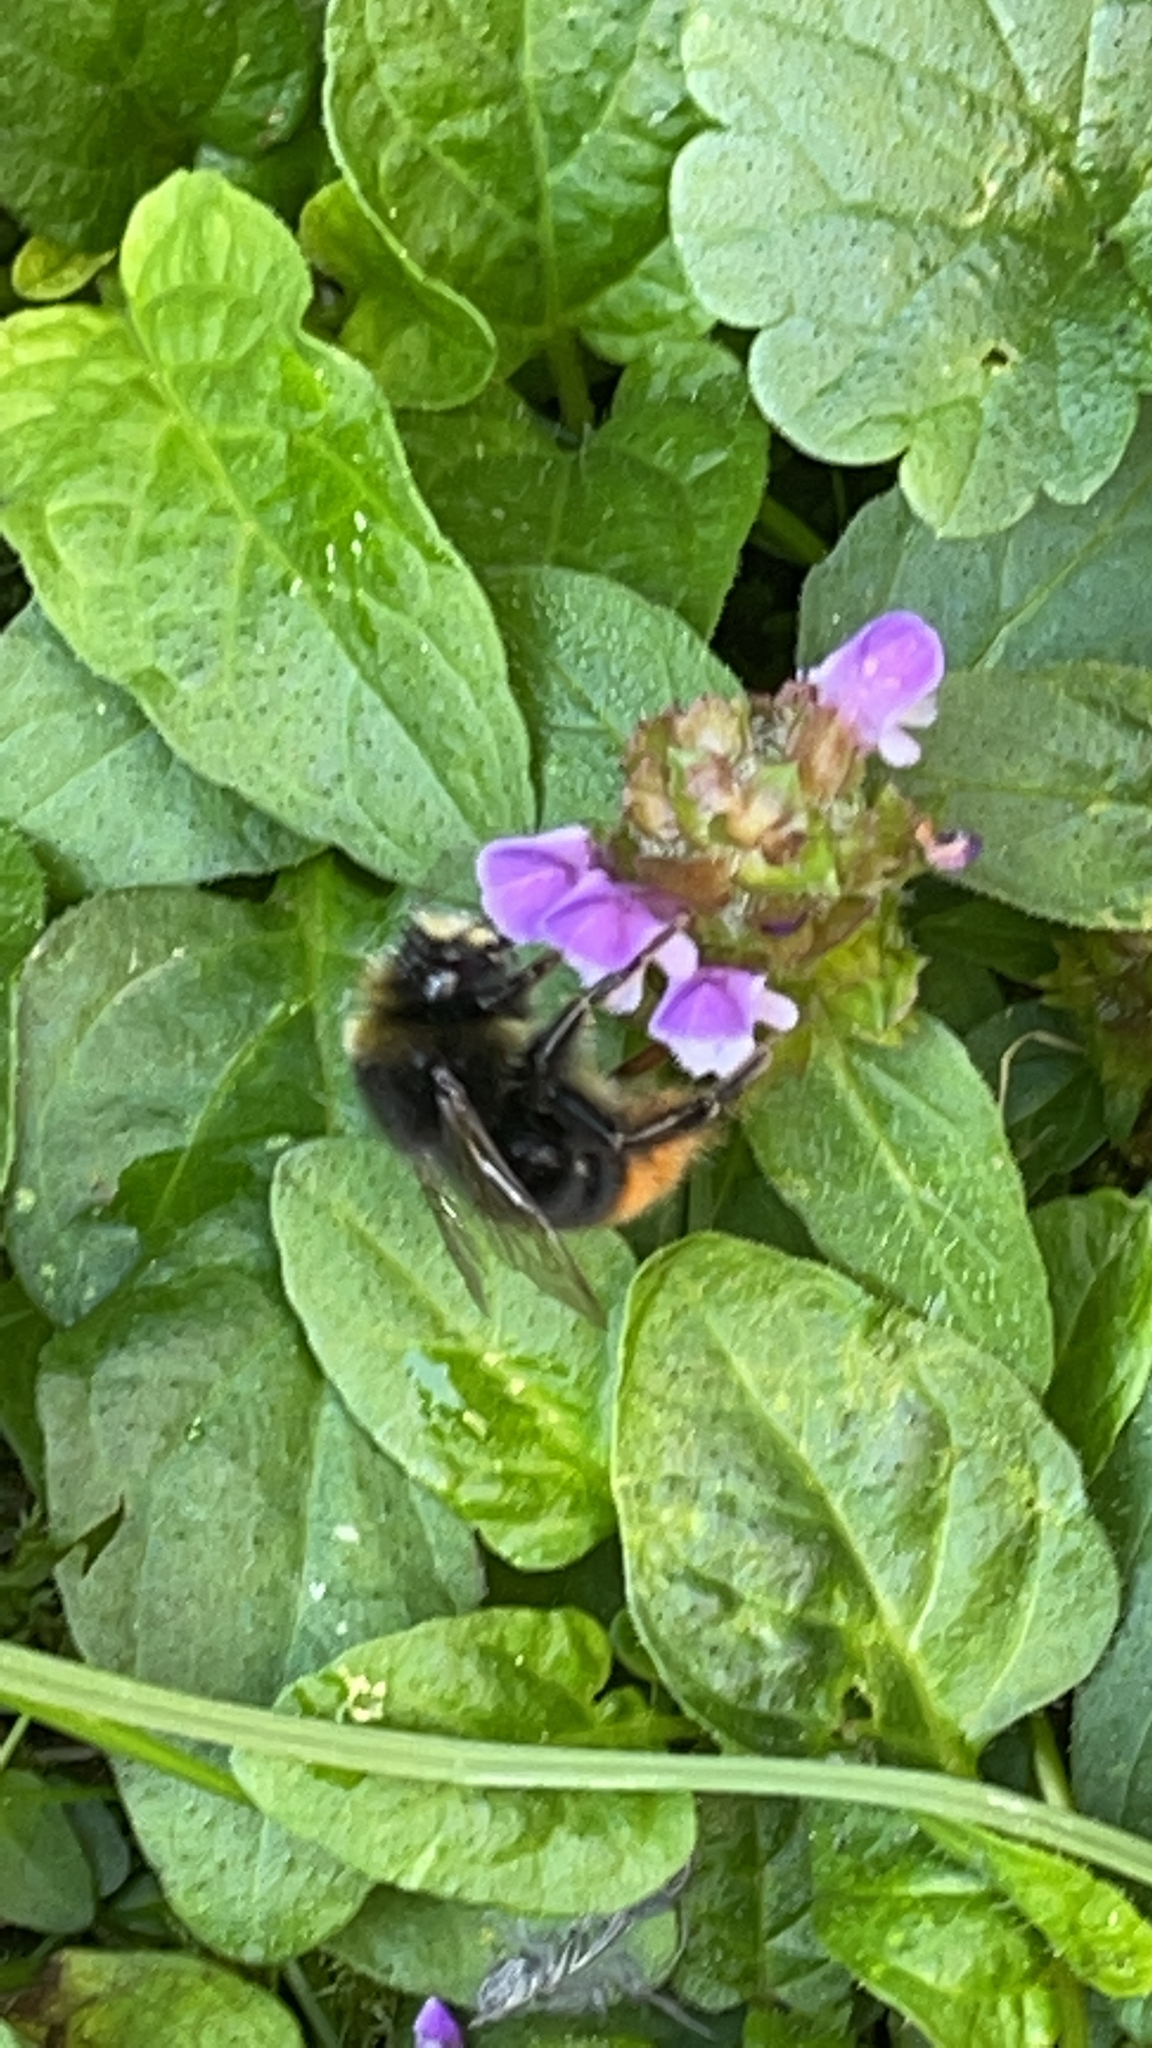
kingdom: Animalia
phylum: Arthropoda
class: Insecta
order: Hymenoptera
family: Apidae
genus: Bombus
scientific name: Bombus lapidarius
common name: Large red-tailed humble-bee
